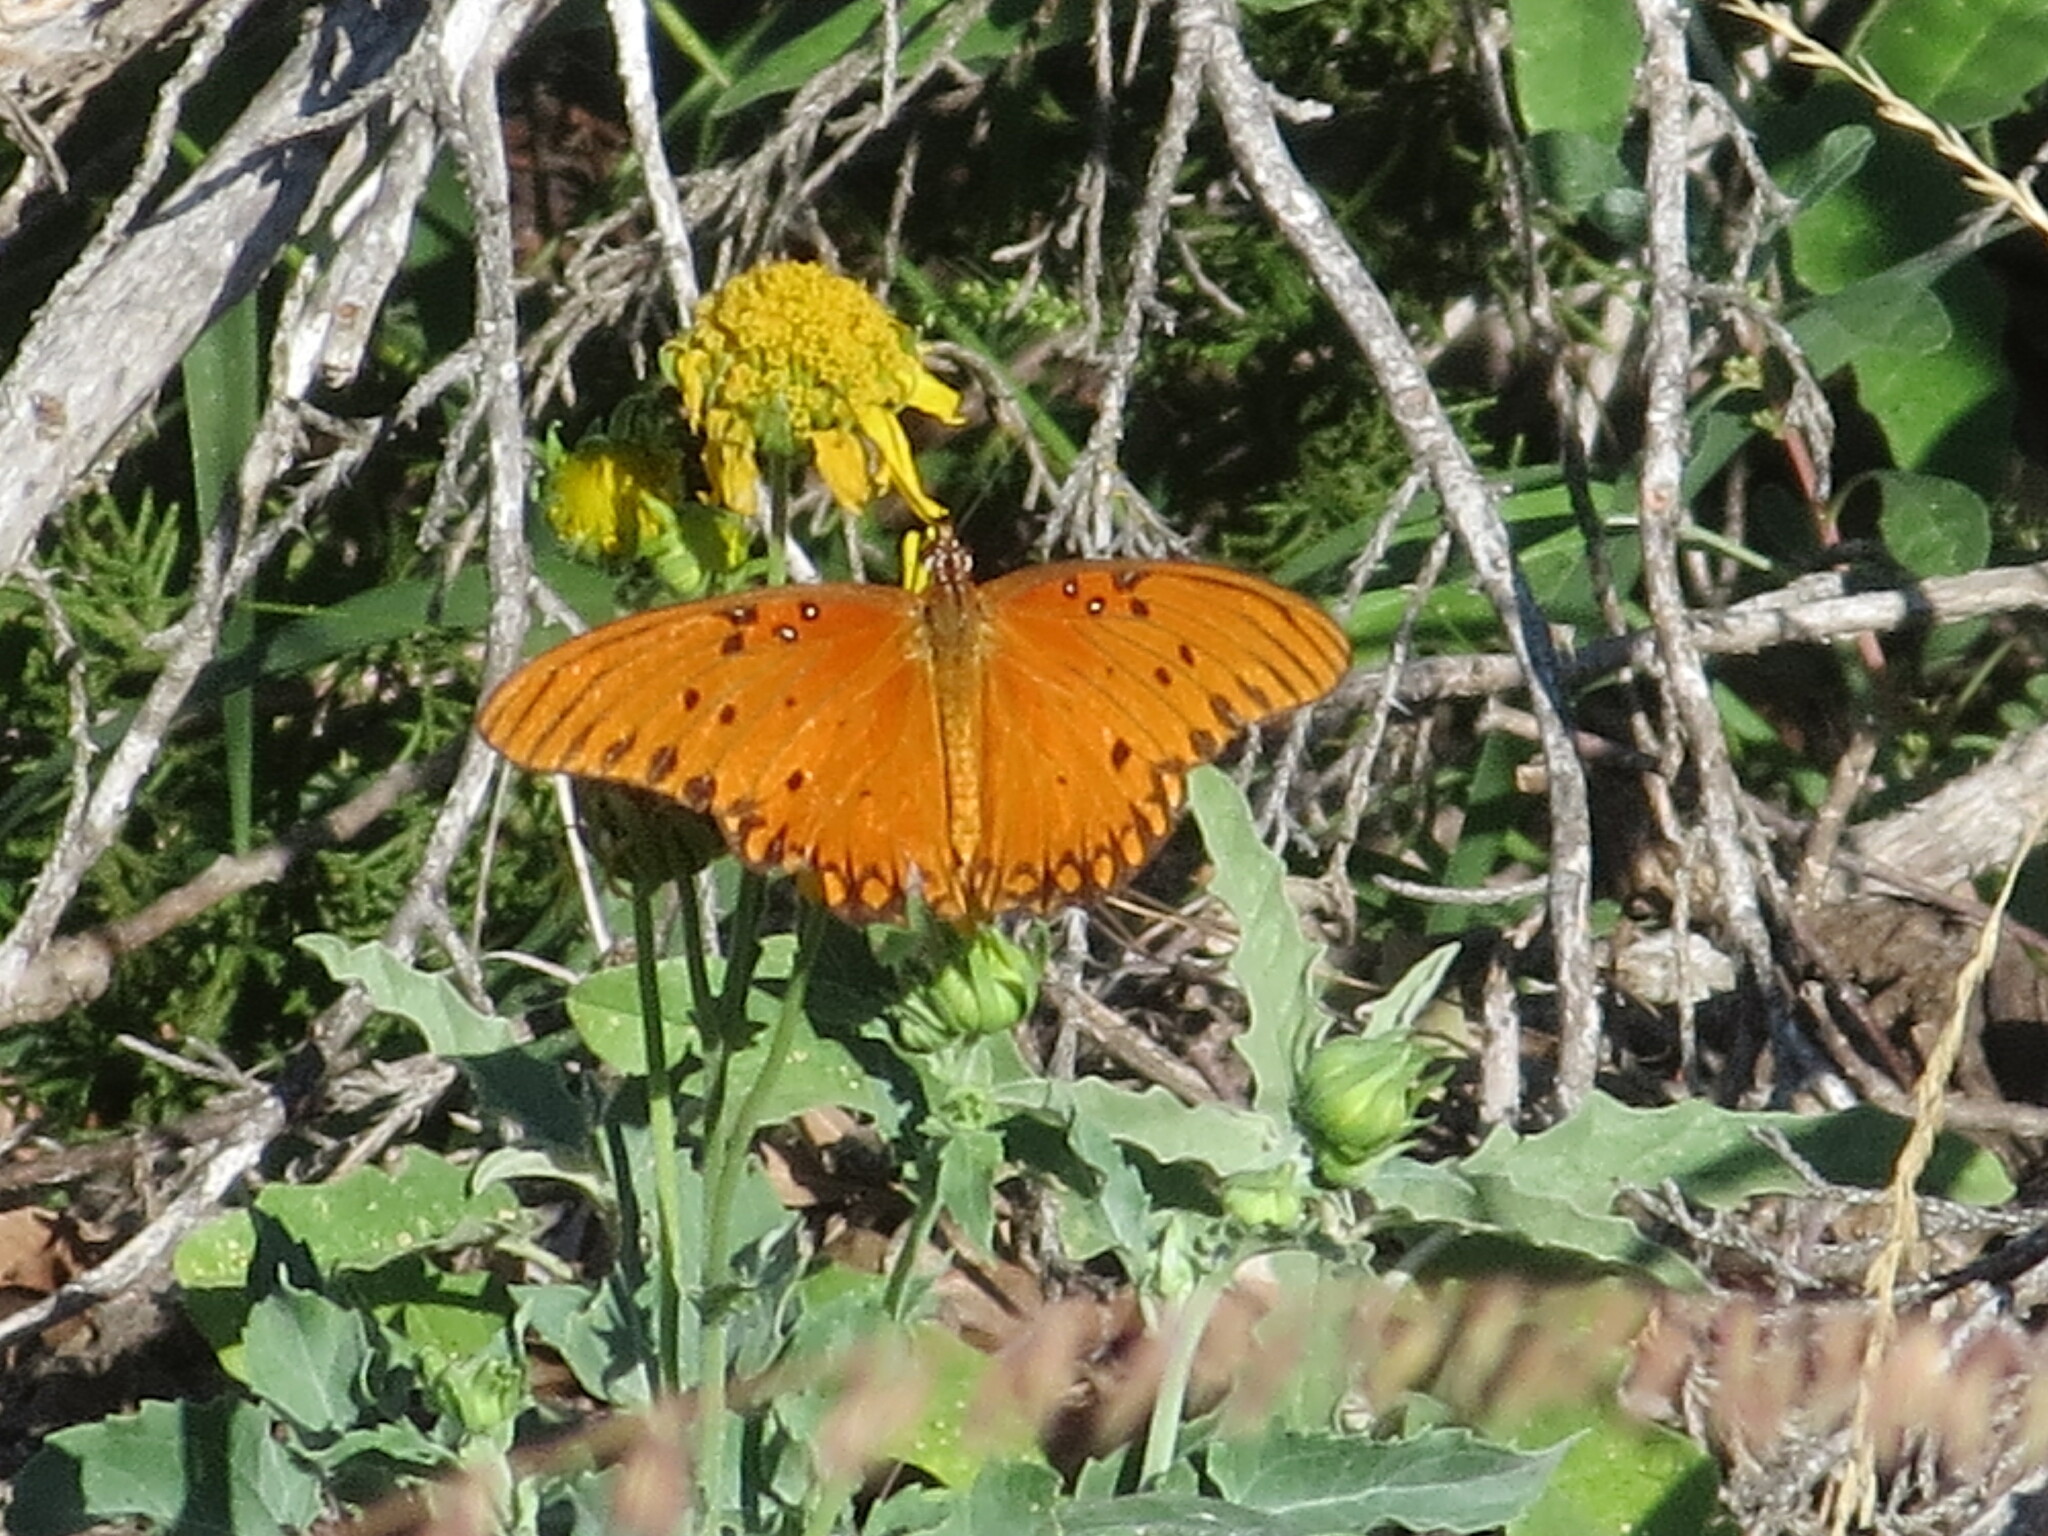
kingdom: Animalia
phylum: Arthropoda
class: Insecta
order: Lepidoptera
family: Nymphalidae
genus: Dione
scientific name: Dione vanillae
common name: Gulf fritillary
